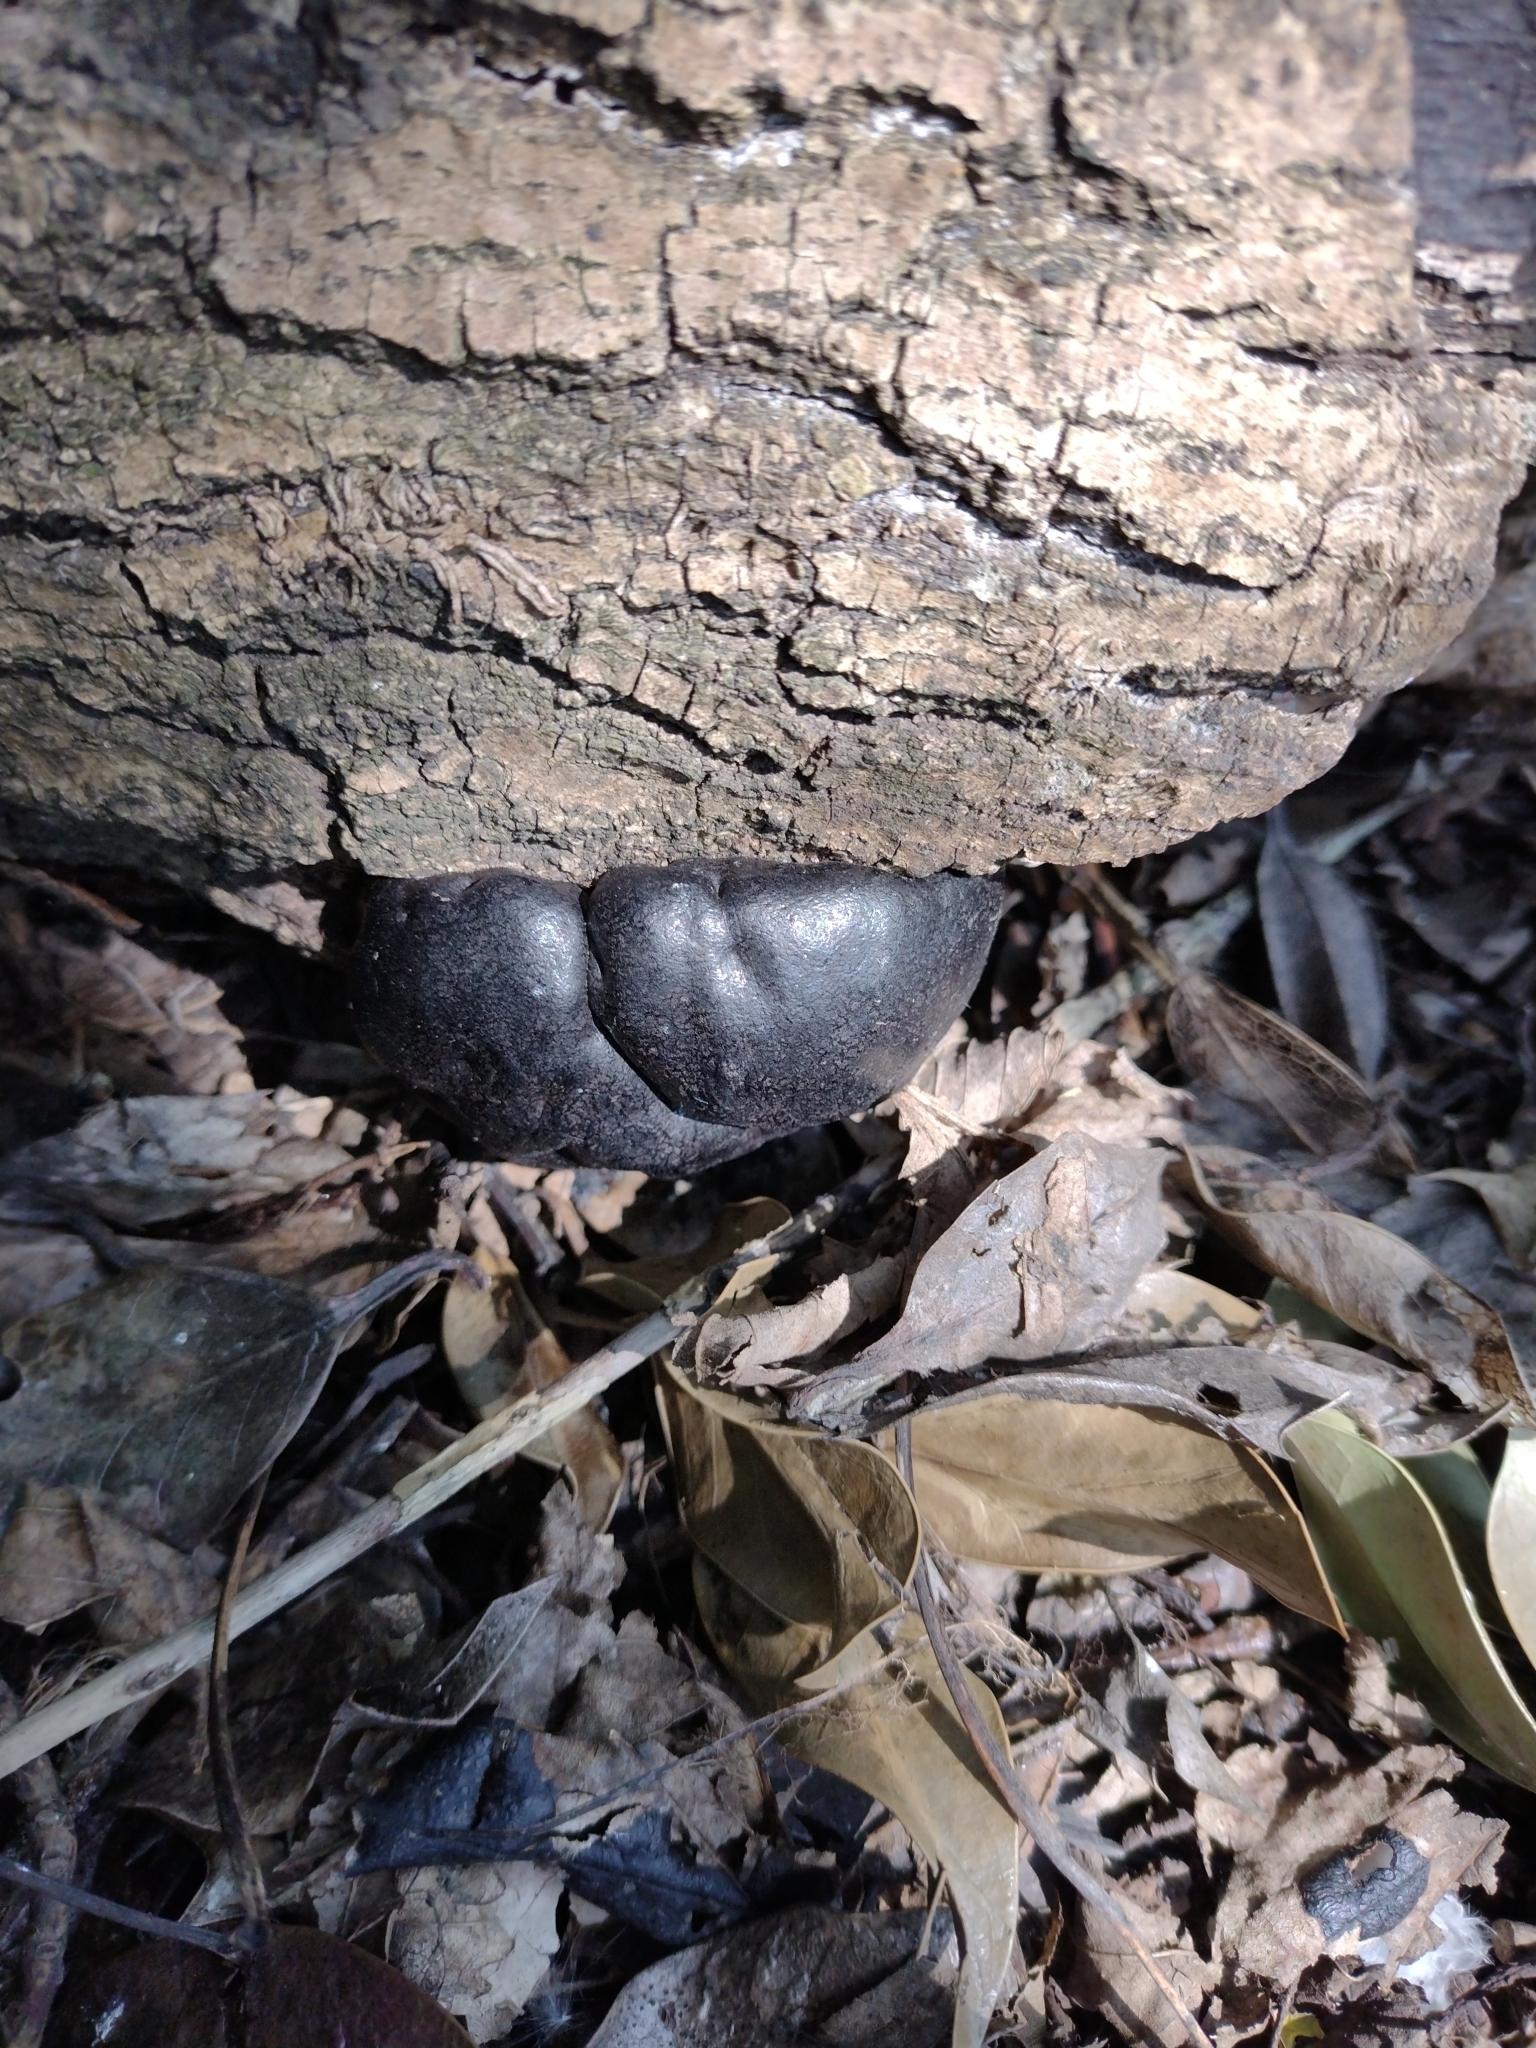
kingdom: Fungi
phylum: Ascomycota
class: Sordariomycetes
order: Xylariales
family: Hypoxylaceae
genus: Daldinia
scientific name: Daldinia concentrica
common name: Cramp balls
